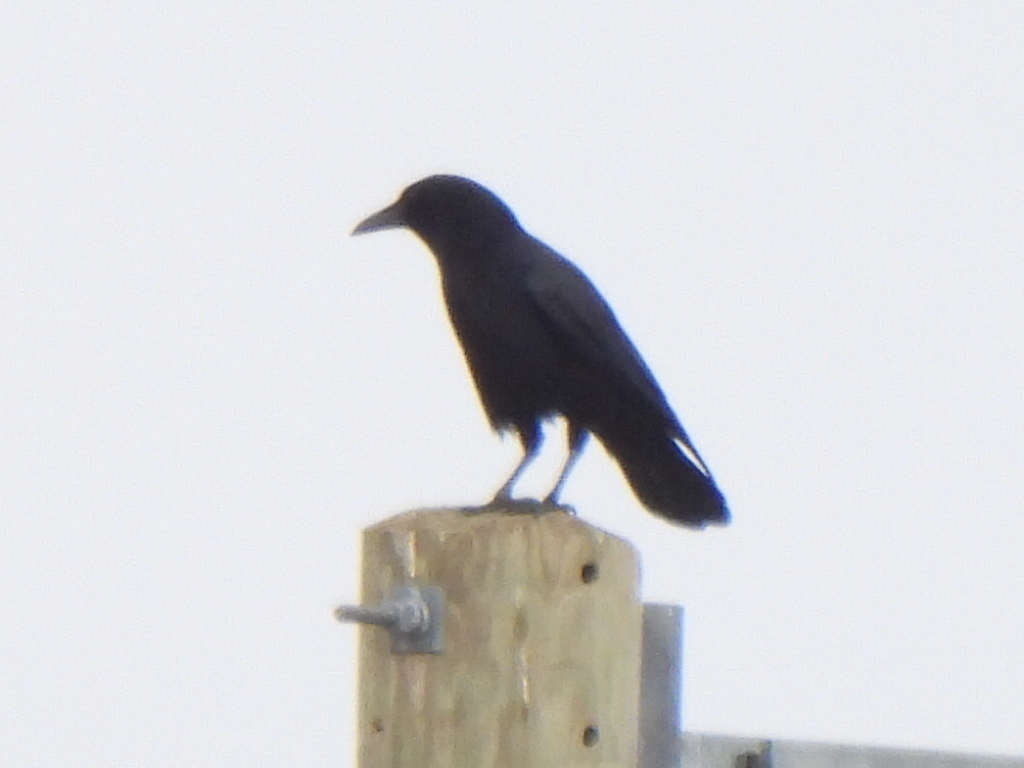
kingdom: Animalia
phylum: Chordata
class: Aves
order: Passeriformes
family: Corvidae
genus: Corvus
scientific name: Corvus brachyrhynchos
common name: American crow
